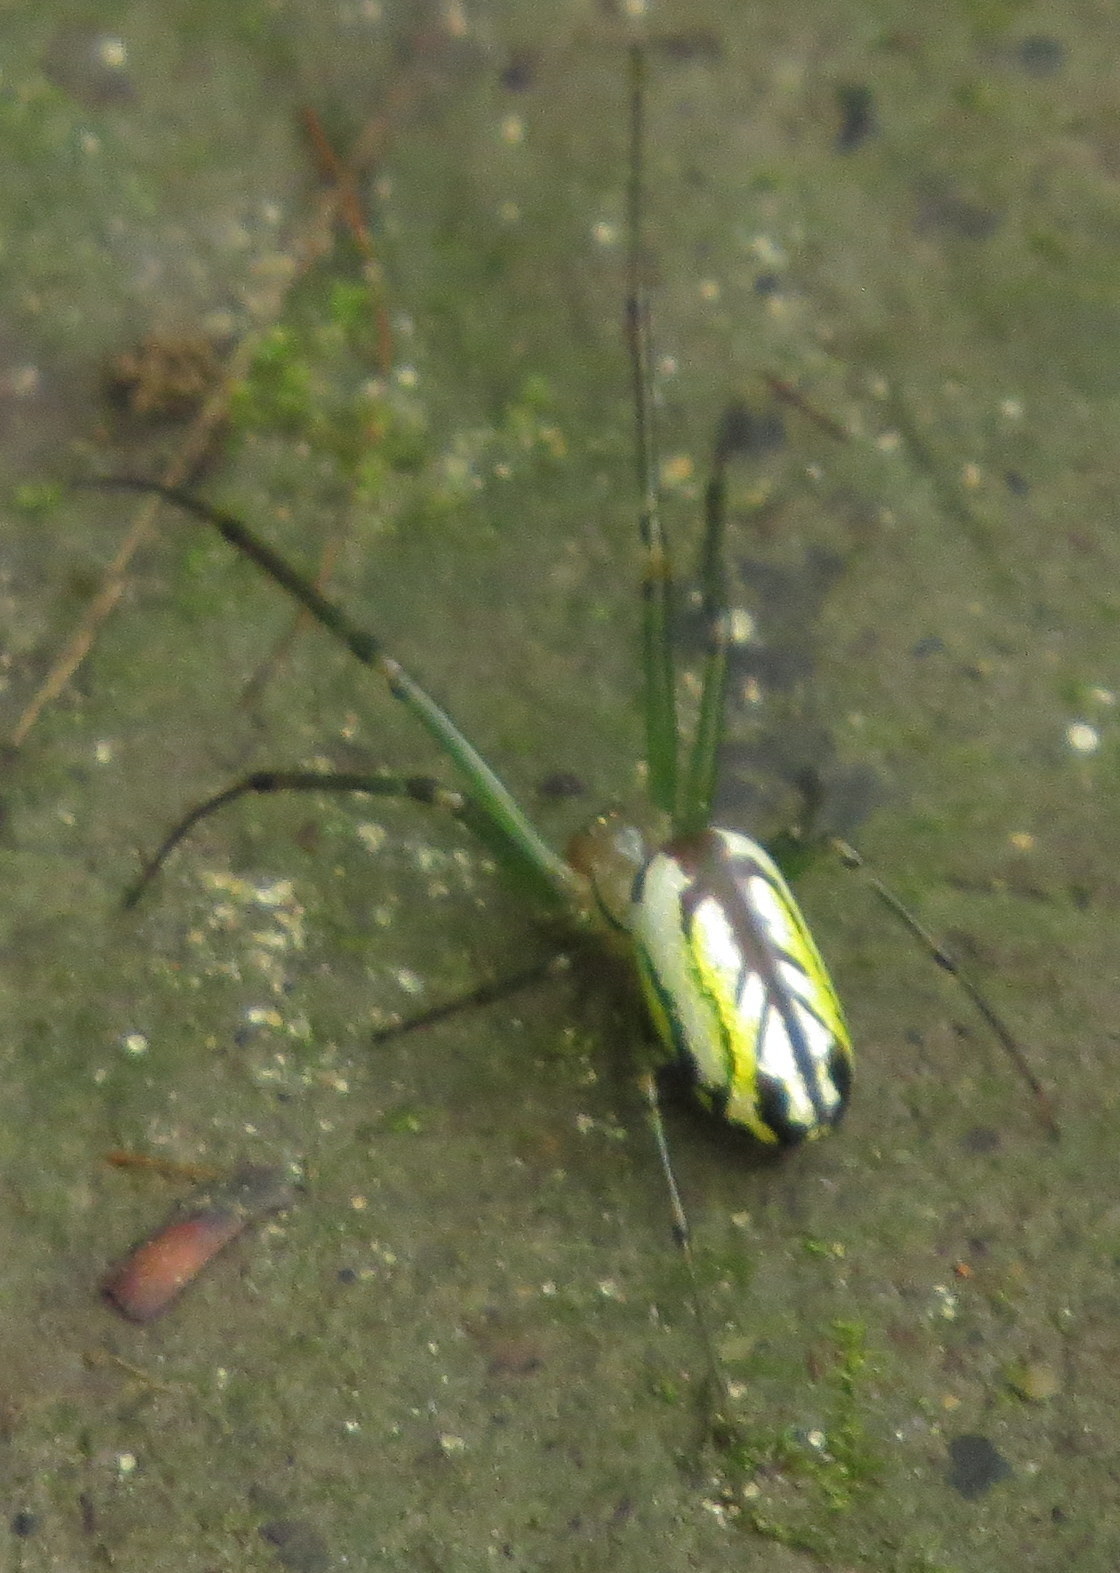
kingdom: Animalia
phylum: Arthropoda
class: Arachnida
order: Araneae
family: Tetragnathidae
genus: Leucauge
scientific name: Leucauge venusta
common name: Longjawed orb weavers
